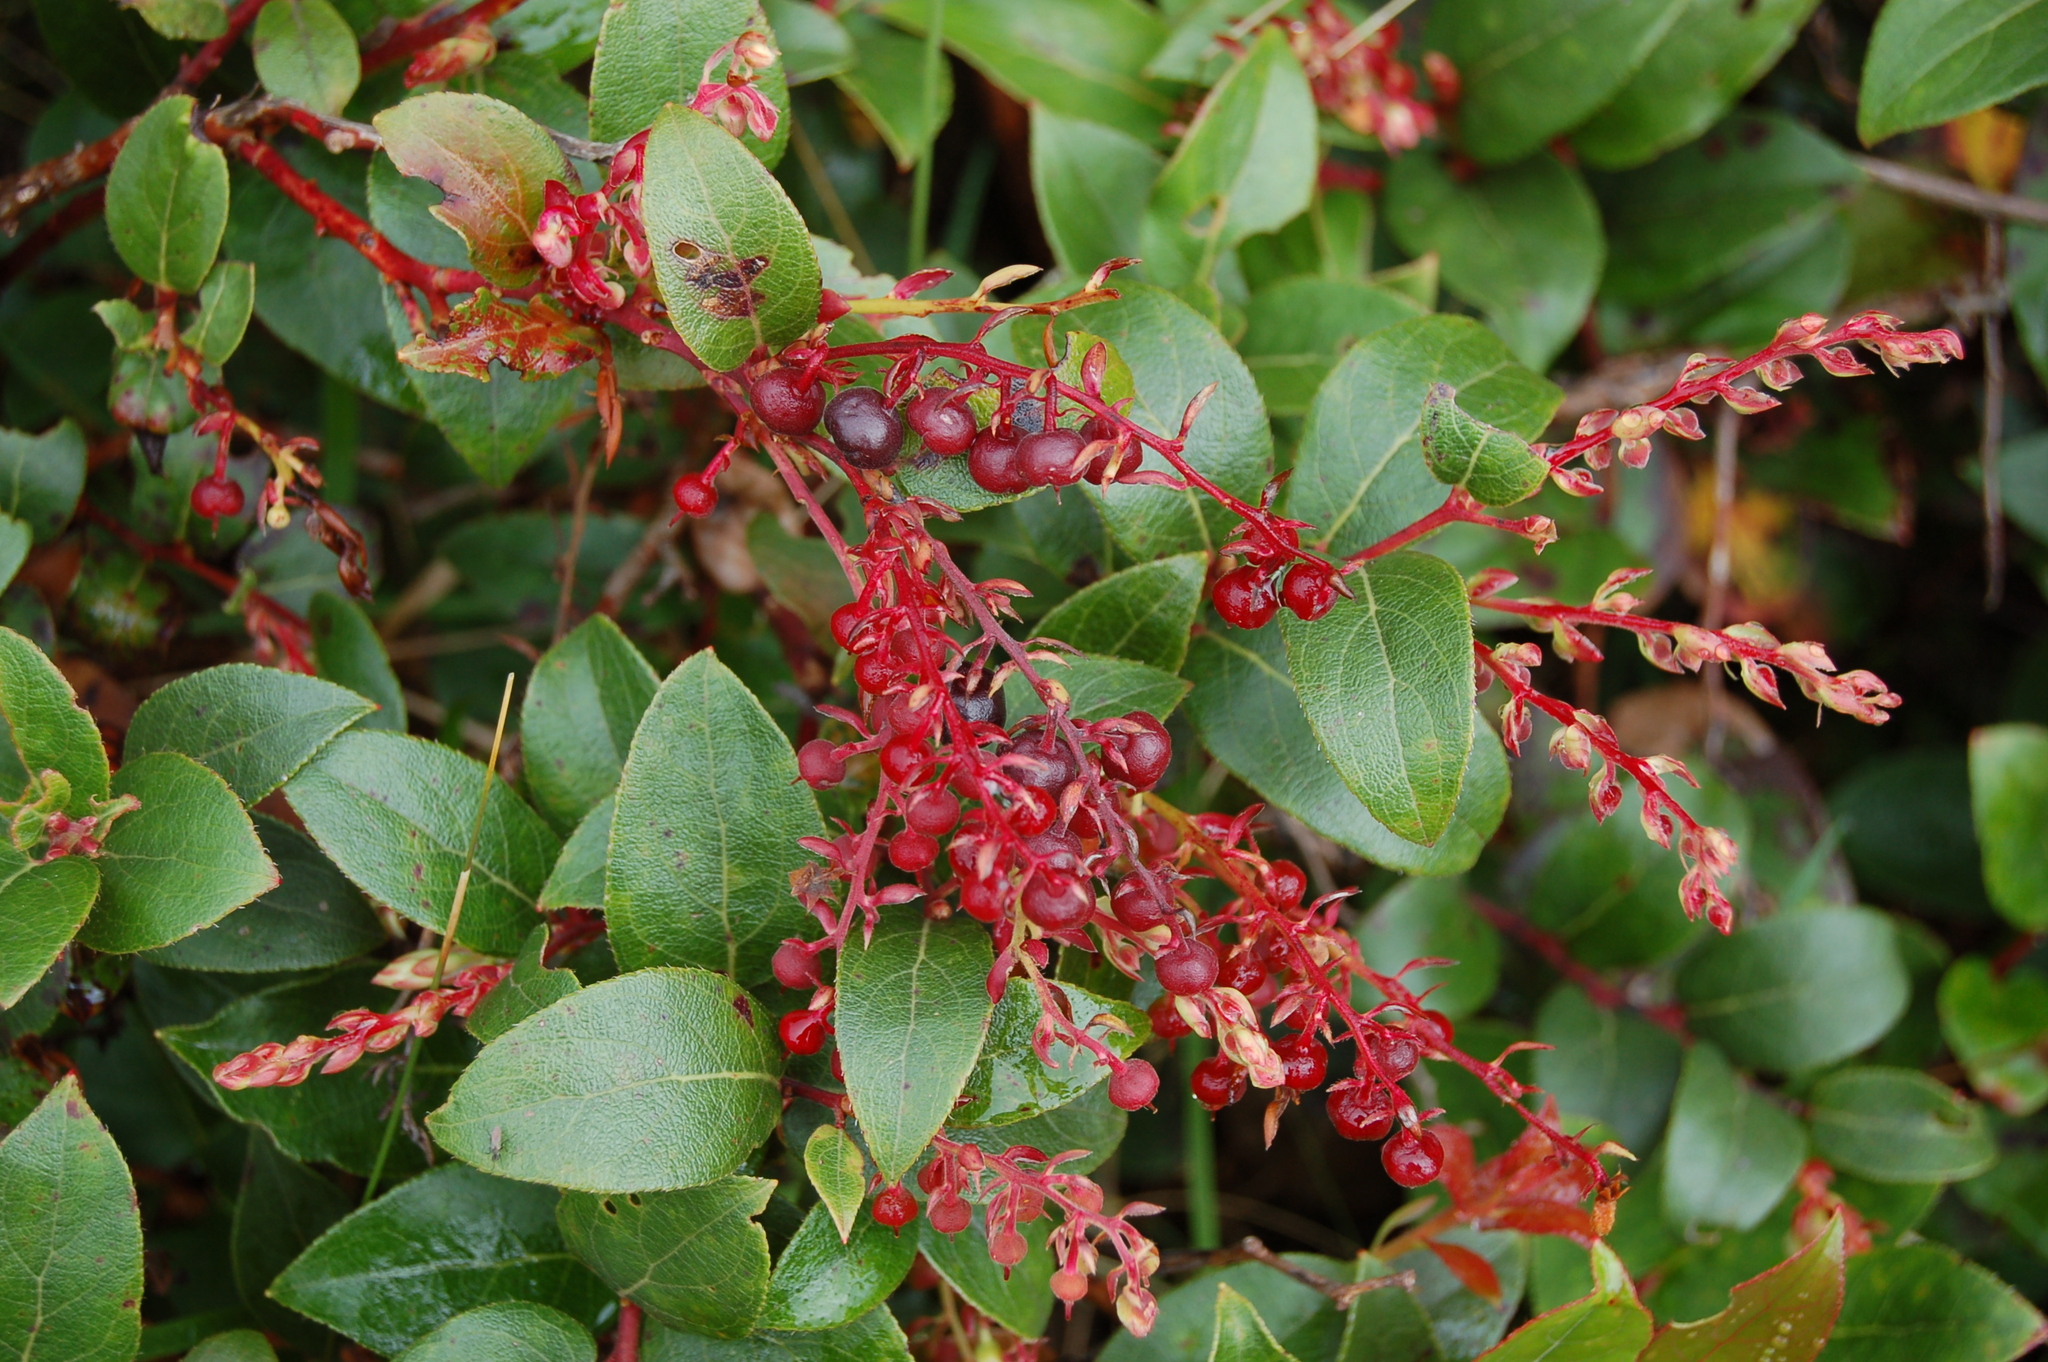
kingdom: Plantae
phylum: Tracheophyta
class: Magnoliopsida
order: Ericales
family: Ericaceae
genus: Gaultheria
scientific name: Gaultheria erecta
